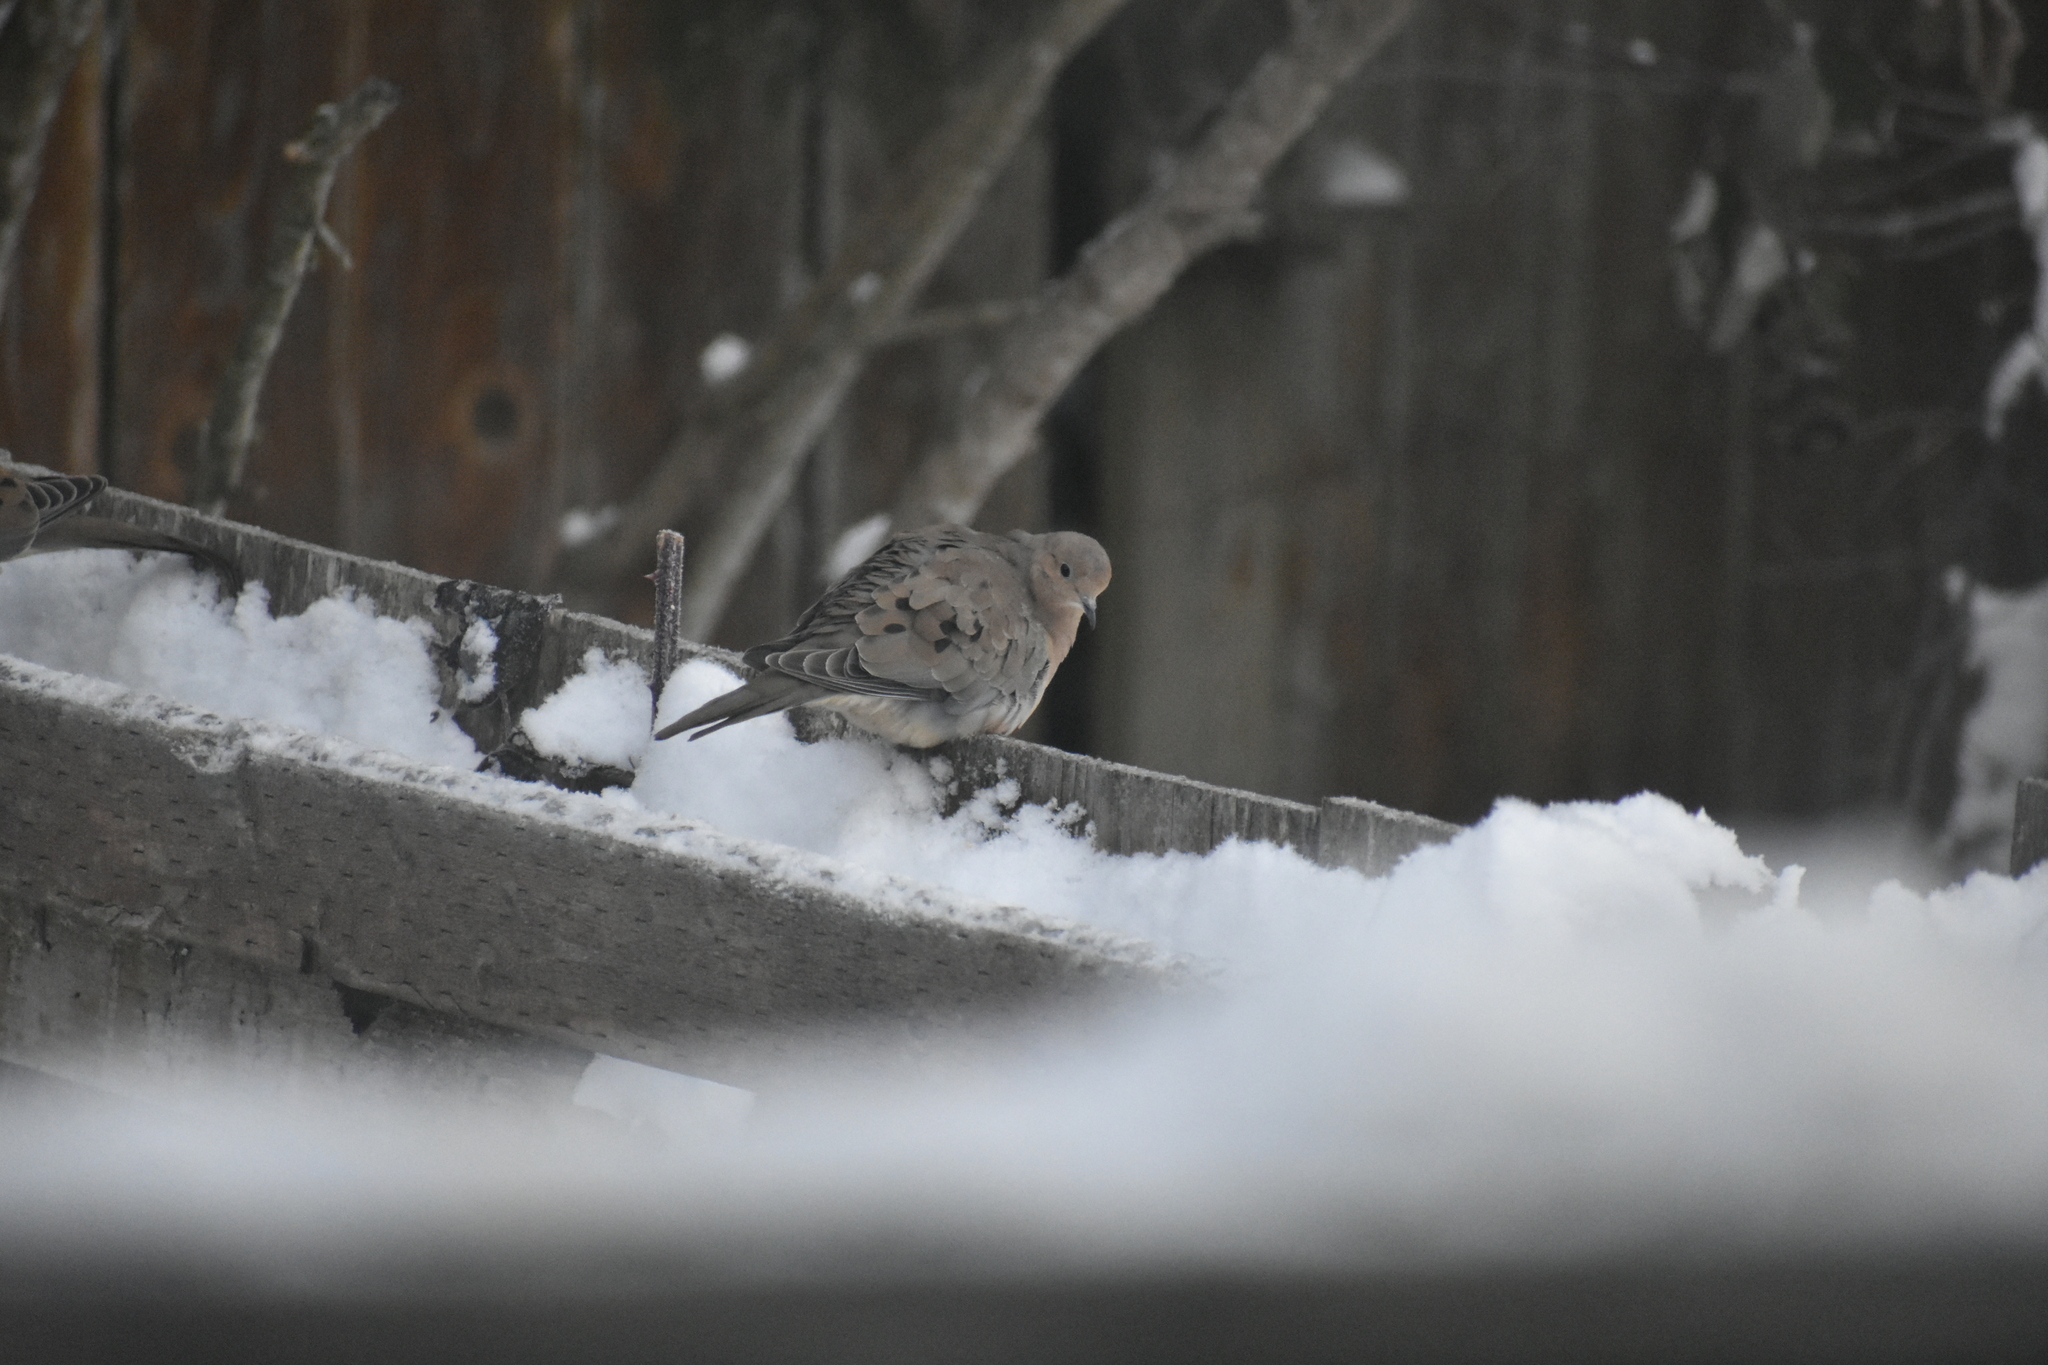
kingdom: Animalia
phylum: Chordata
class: Aves
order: Columbiformes
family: Columbidae
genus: Zenaida
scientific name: Zenaida macroura
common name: Mourning dove
